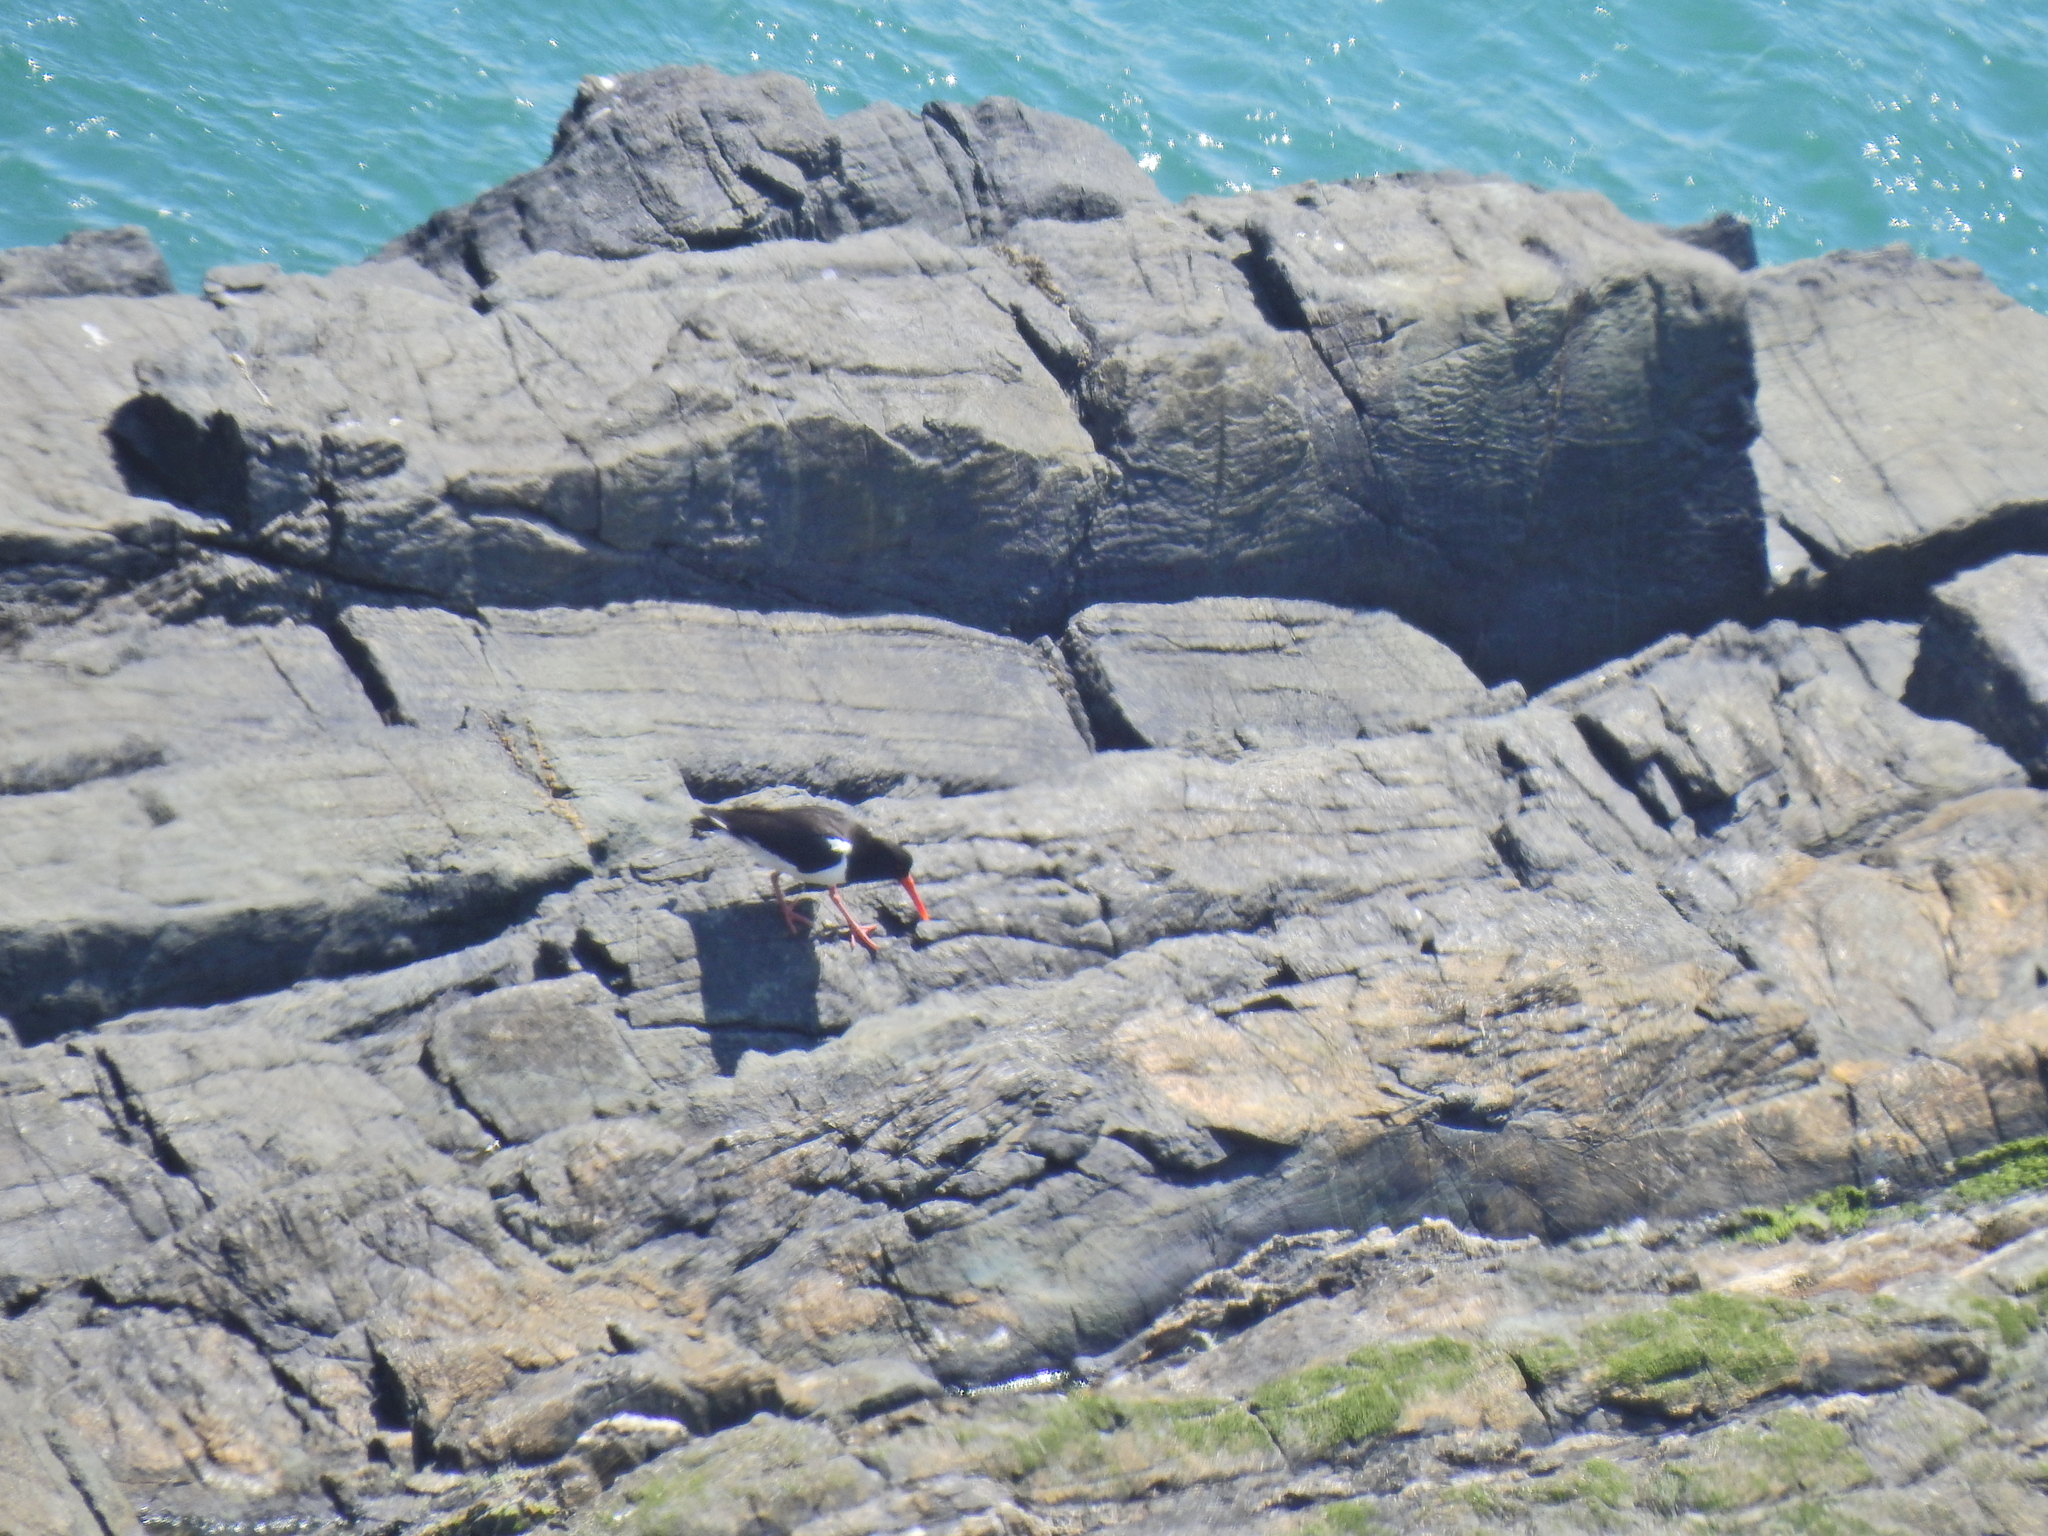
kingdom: Animalia
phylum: Chordata
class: Aves
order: Charadriiformes
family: Haematopodidae
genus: Haematopus
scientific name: Haematopus ostralegus
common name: Eurasian oystercatcher
